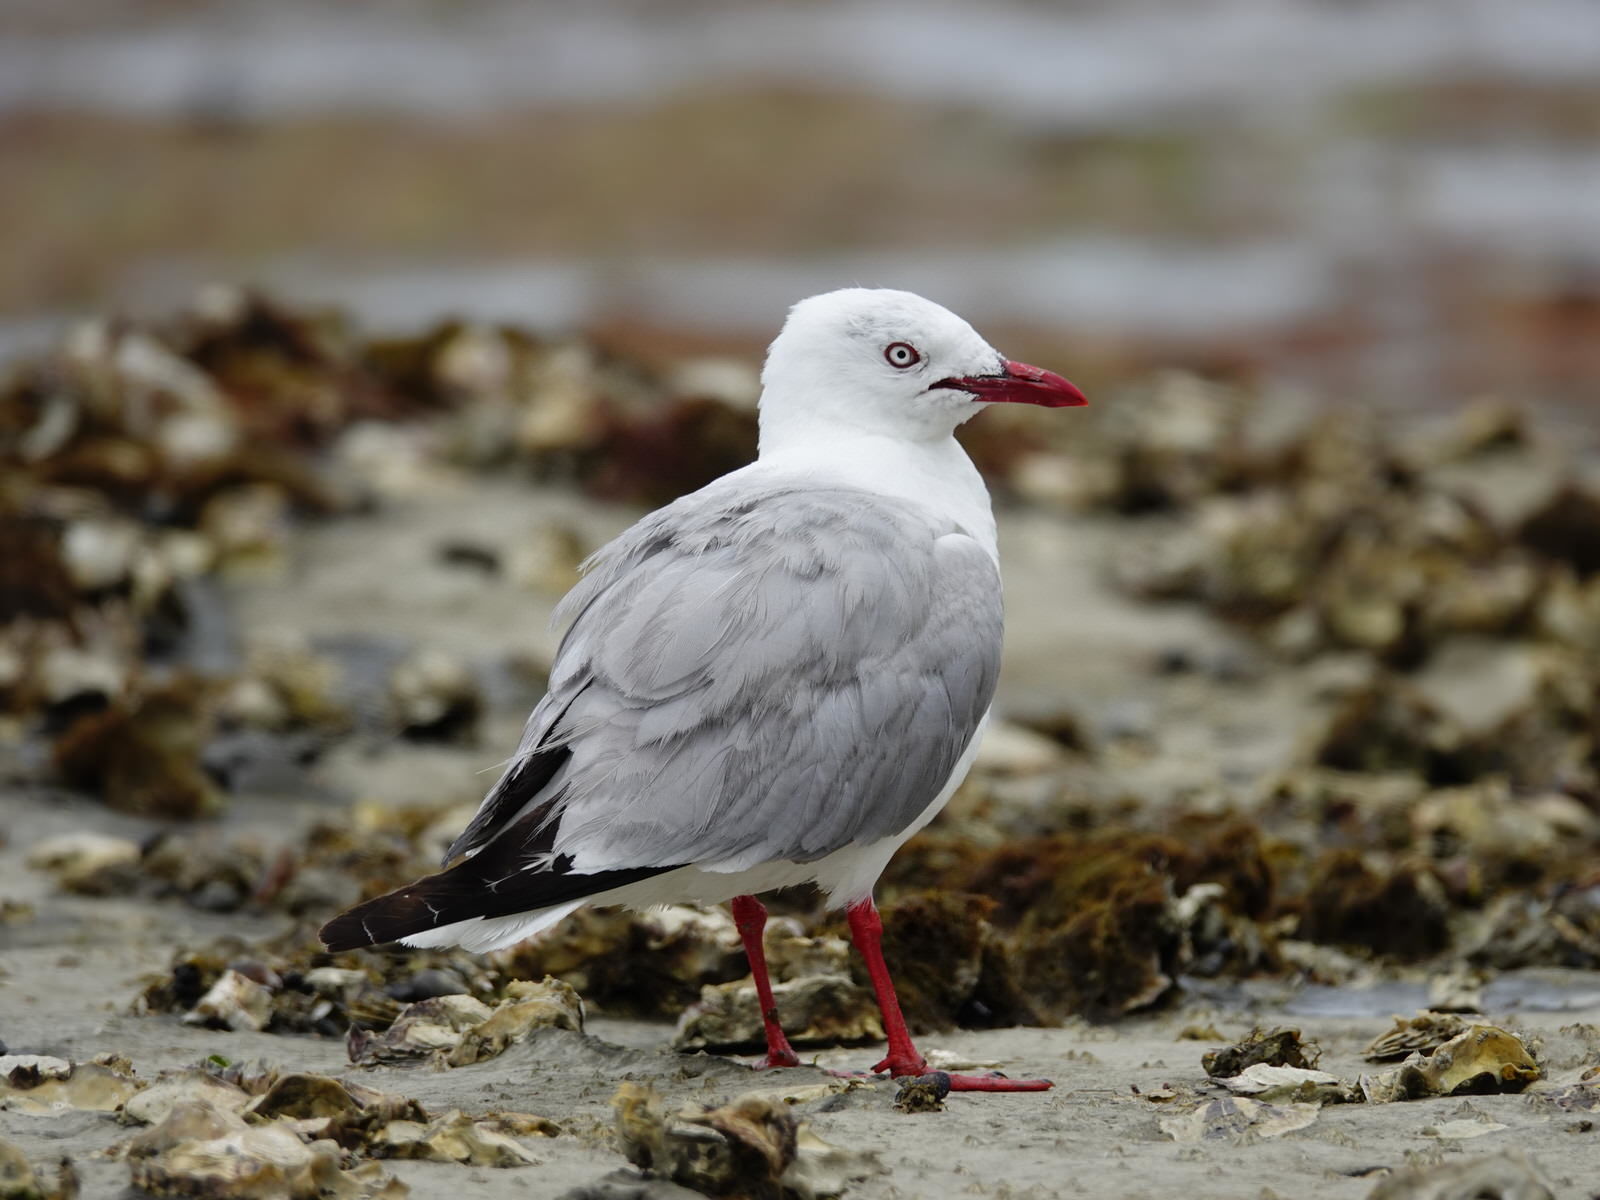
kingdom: Animalia
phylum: Chordata
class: Aves
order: Charadriiformes
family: Laridae
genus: Chroicocephalus
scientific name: Chroicocephalus novaehollandiae
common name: Silver gull
